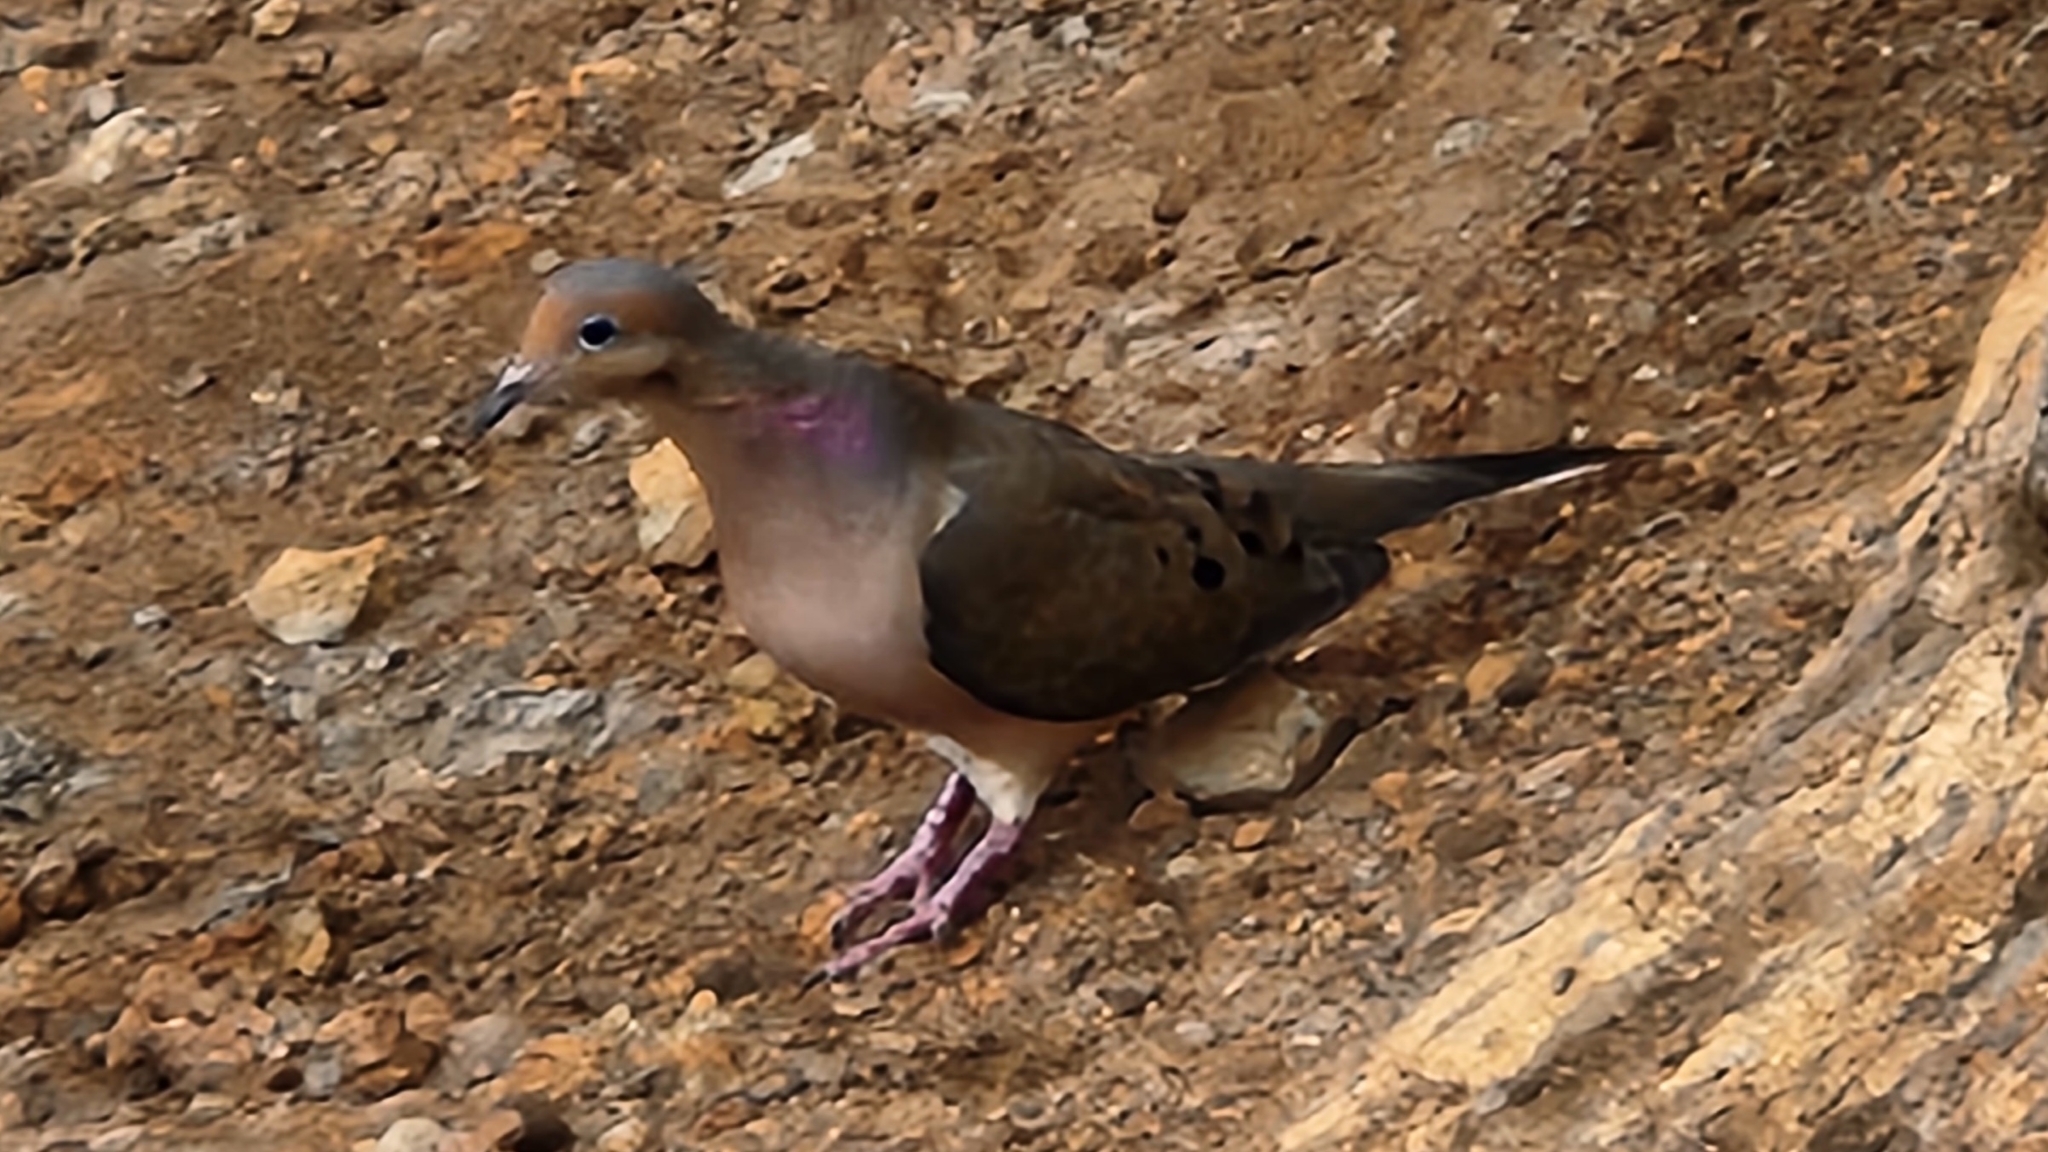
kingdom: Animalia
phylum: Chordata
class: Aves
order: Columbiformes
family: Columbidae
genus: Zenaida
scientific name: Zenaida macroura
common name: Mourning dove
